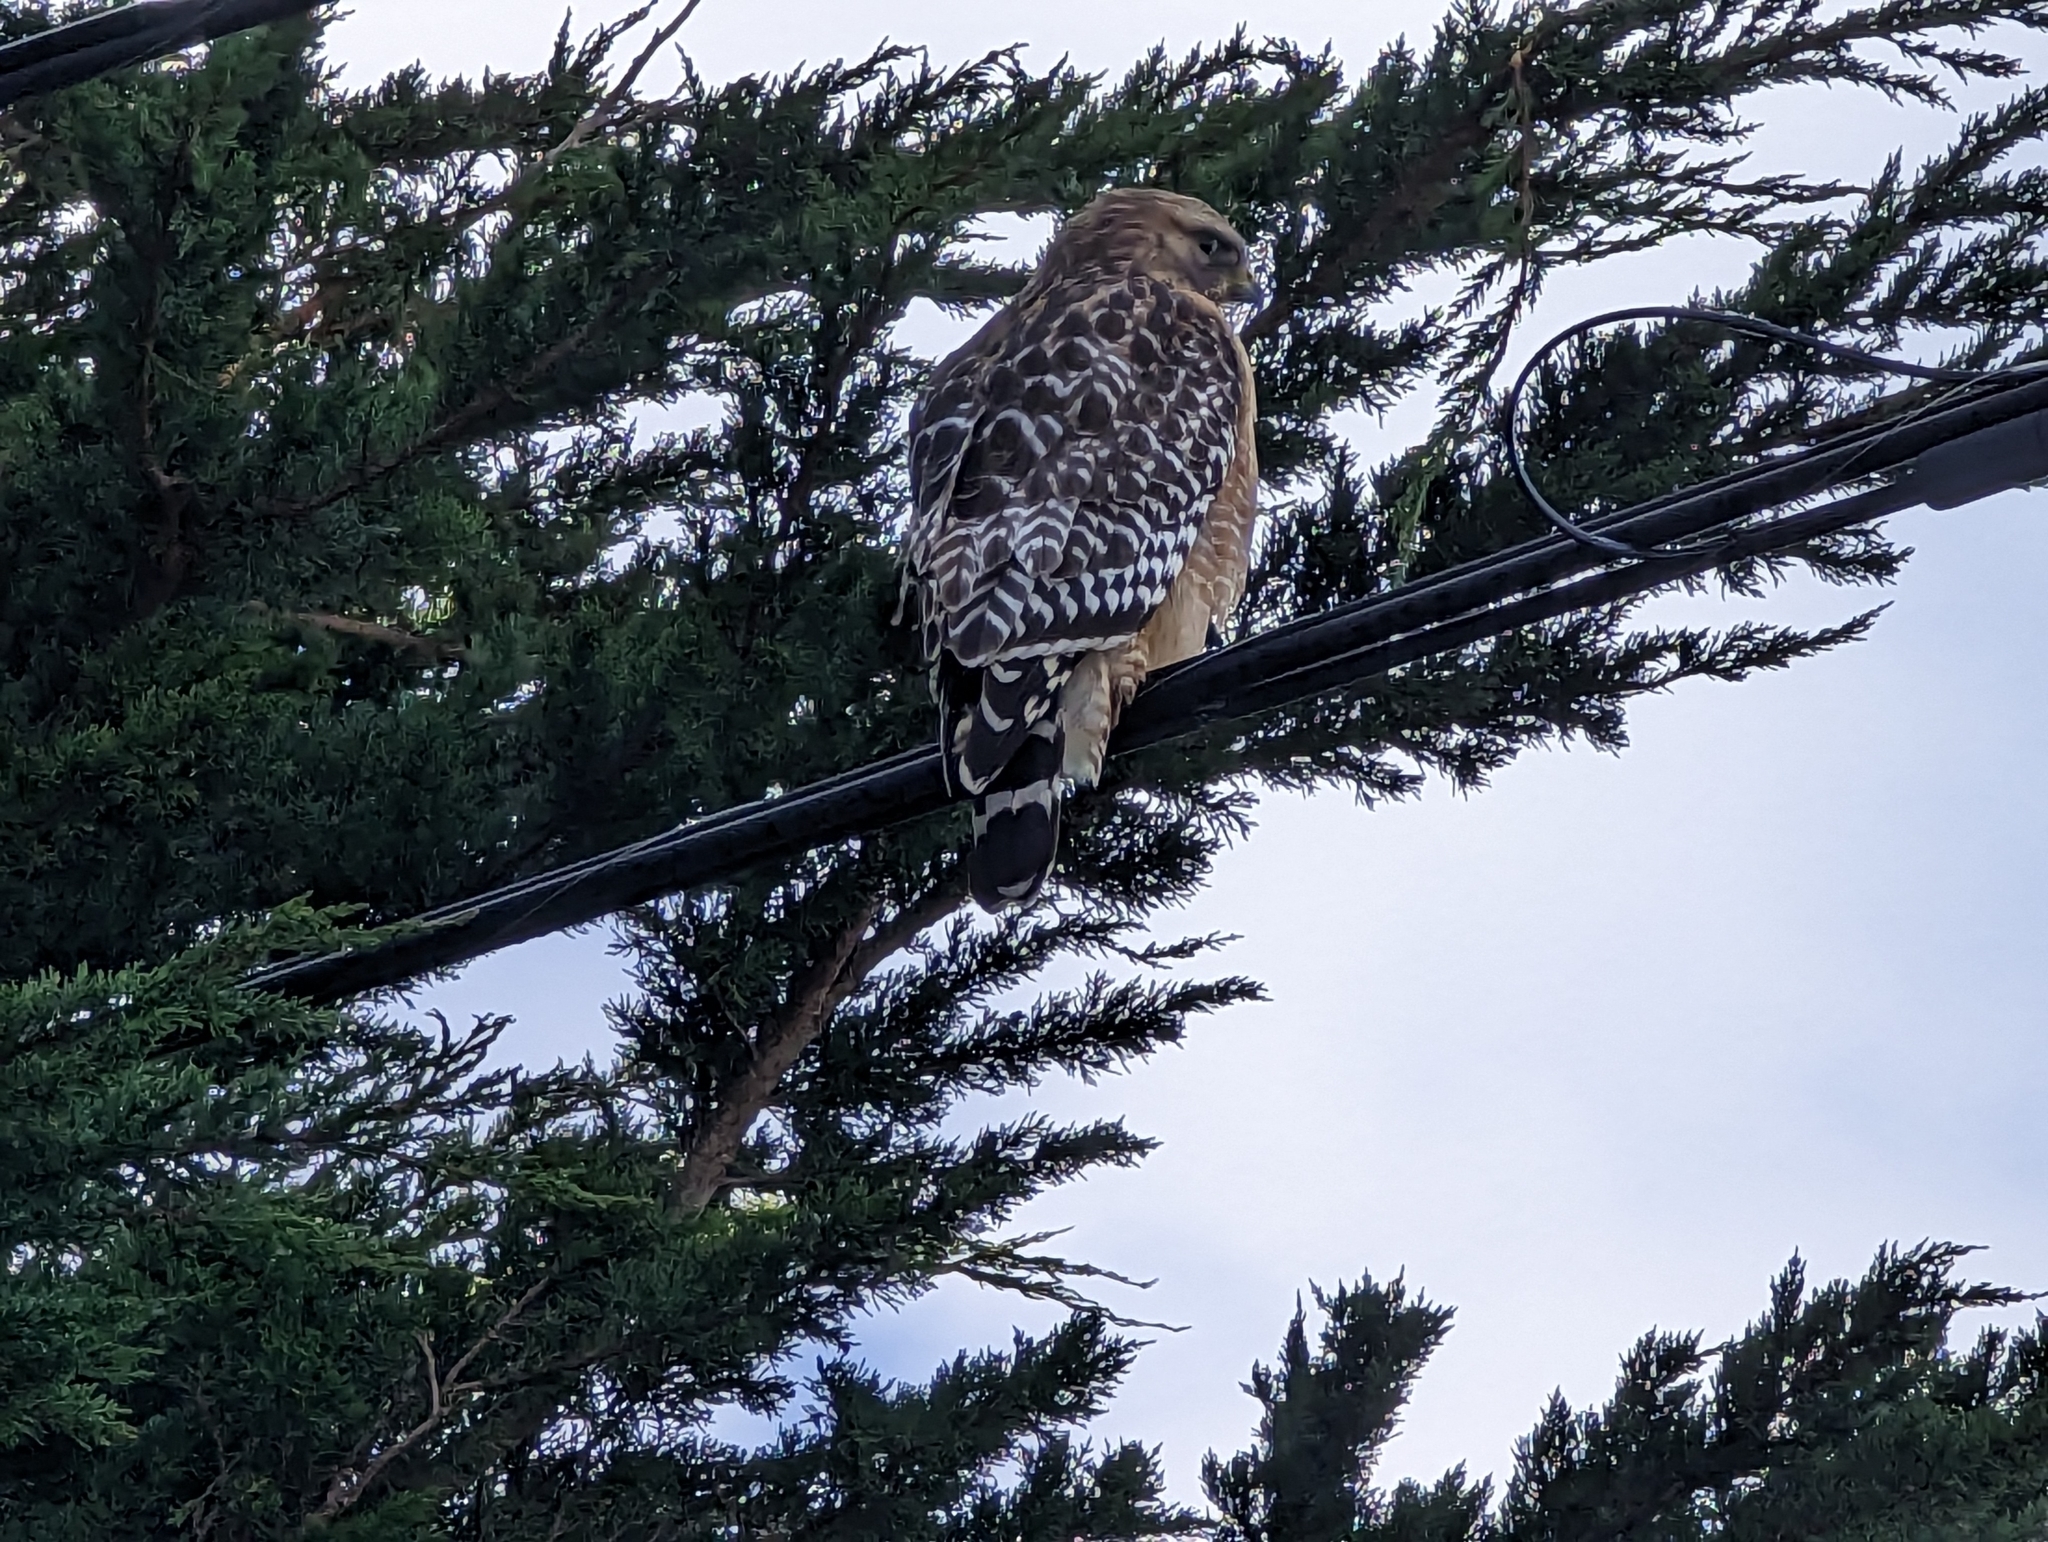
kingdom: Animalia
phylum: Chordata
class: Aves
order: Accipitriformes
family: Accipitridae
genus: Buteo
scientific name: Buteo lineatus
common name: Red-shouldered hawk
